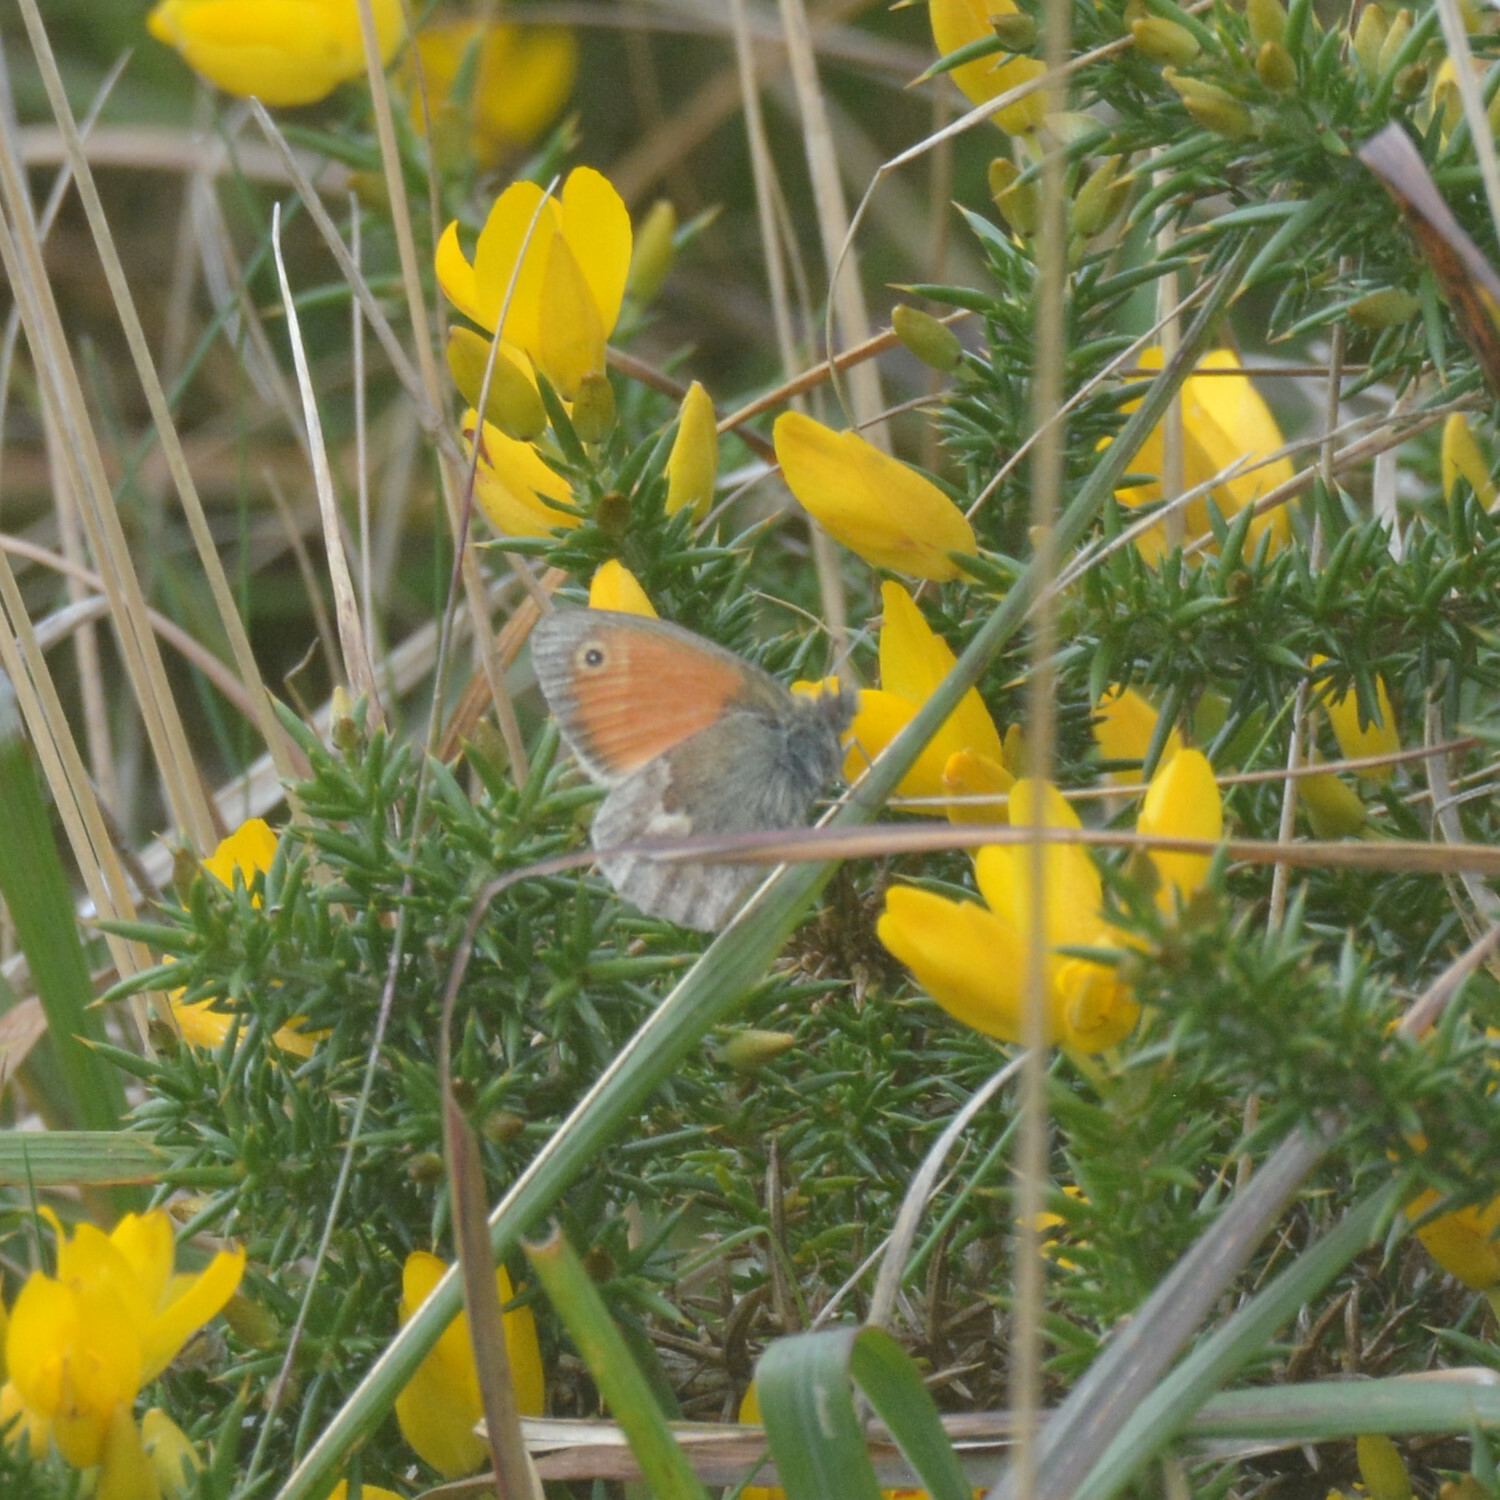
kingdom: Animalia
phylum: Arthropoda
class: Insecta
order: Lepidoptera
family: Nymphalidae
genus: Coenonympha
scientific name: Coenonympha pamphilus
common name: Small heath
